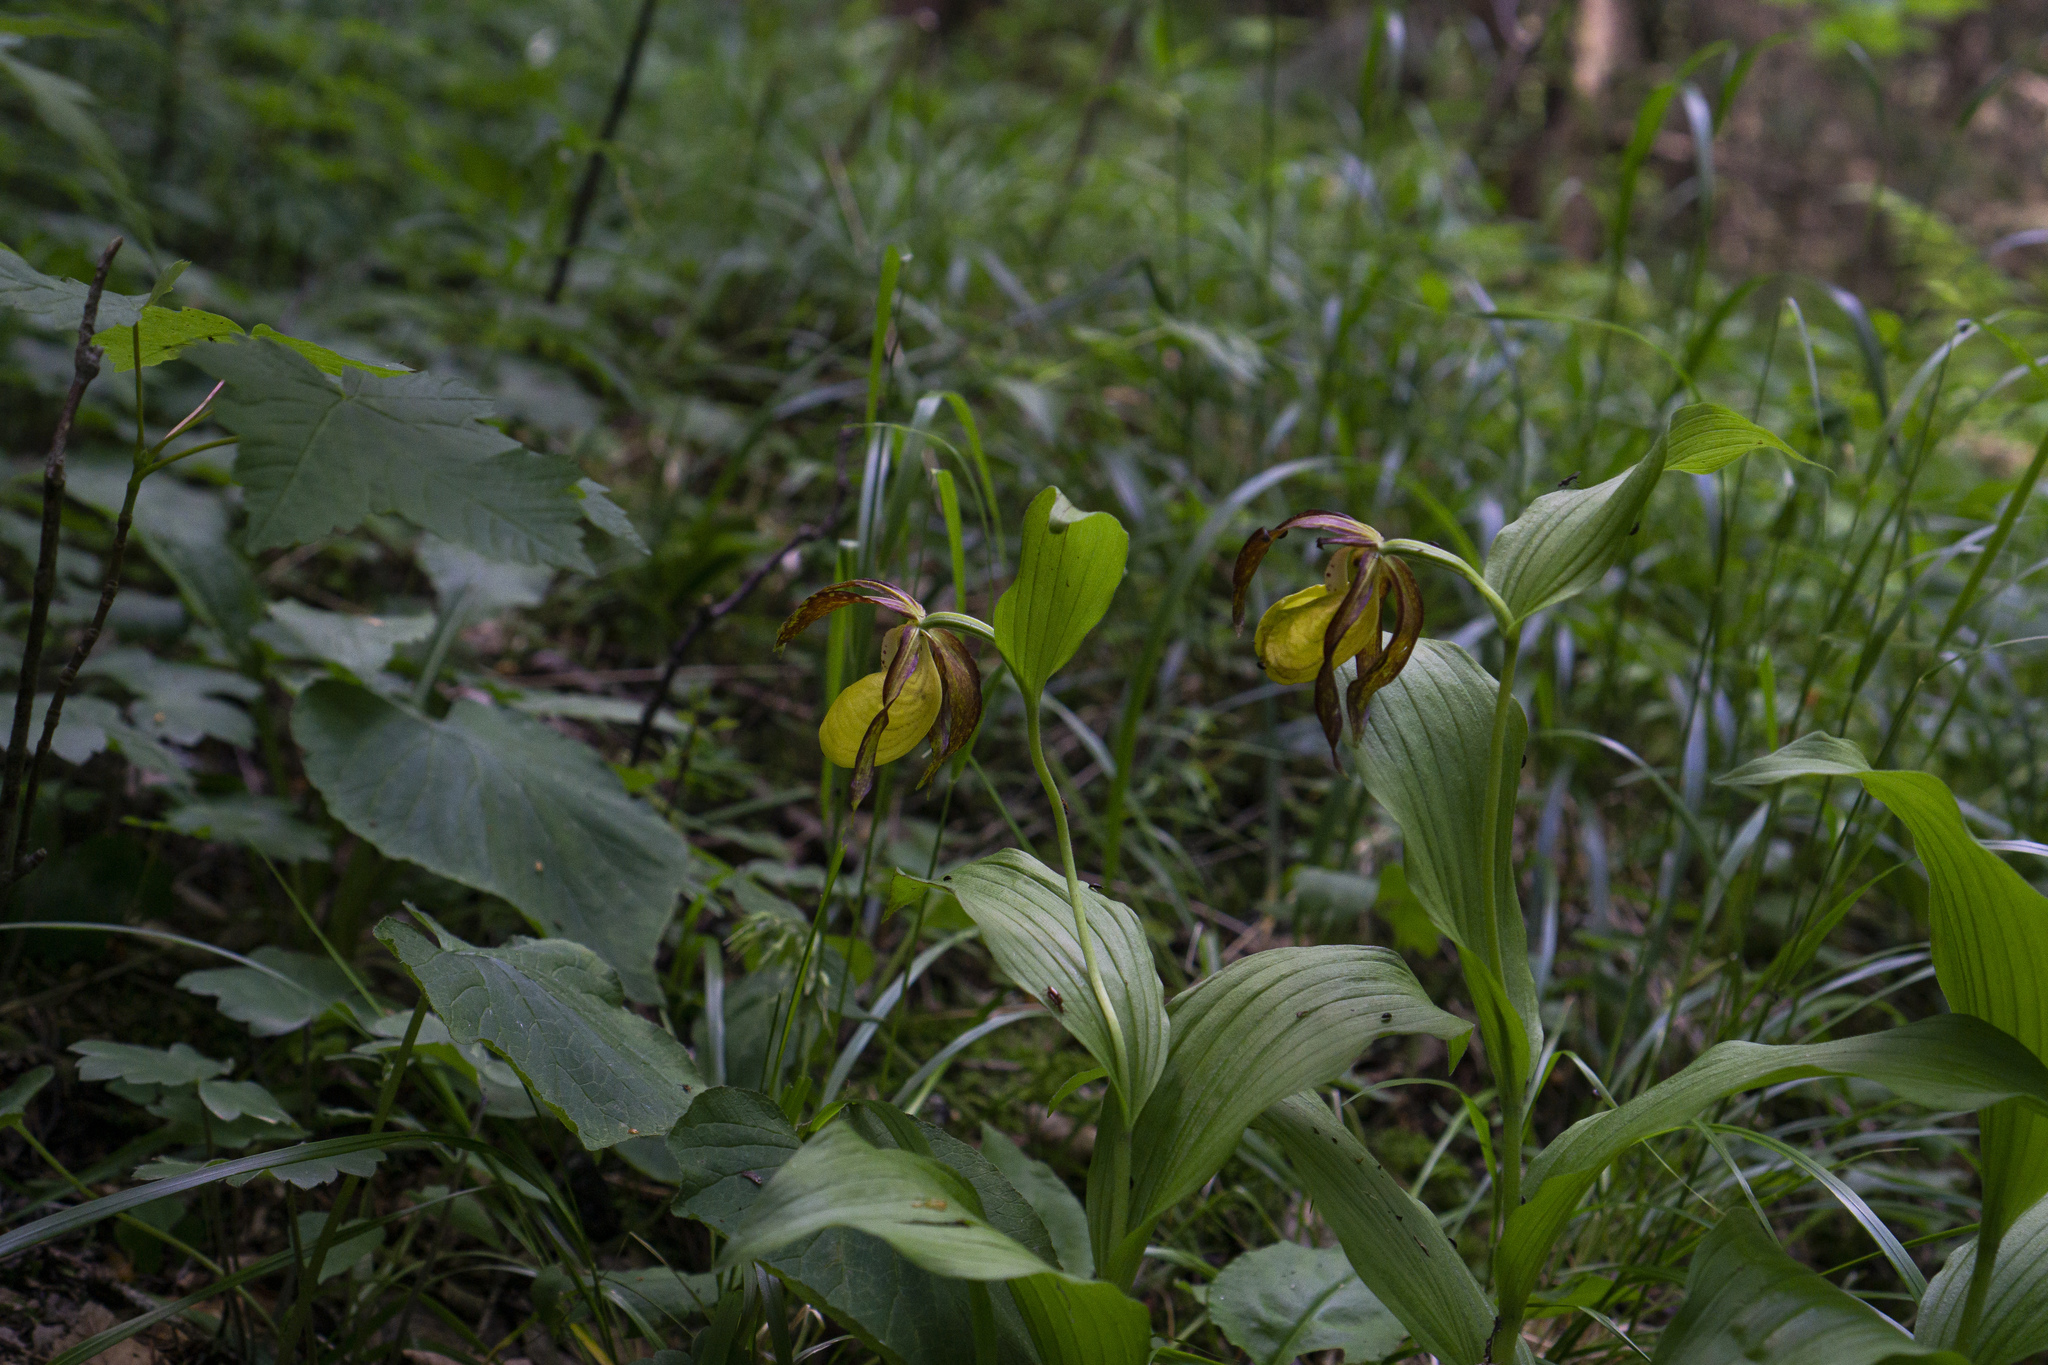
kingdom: Plantae
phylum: Tracheophyta
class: Liliopsida
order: Asparagales
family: Orchidaceae
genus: Cypripedium
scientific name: Cypripedium calceolus
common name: Lady's-slipper
